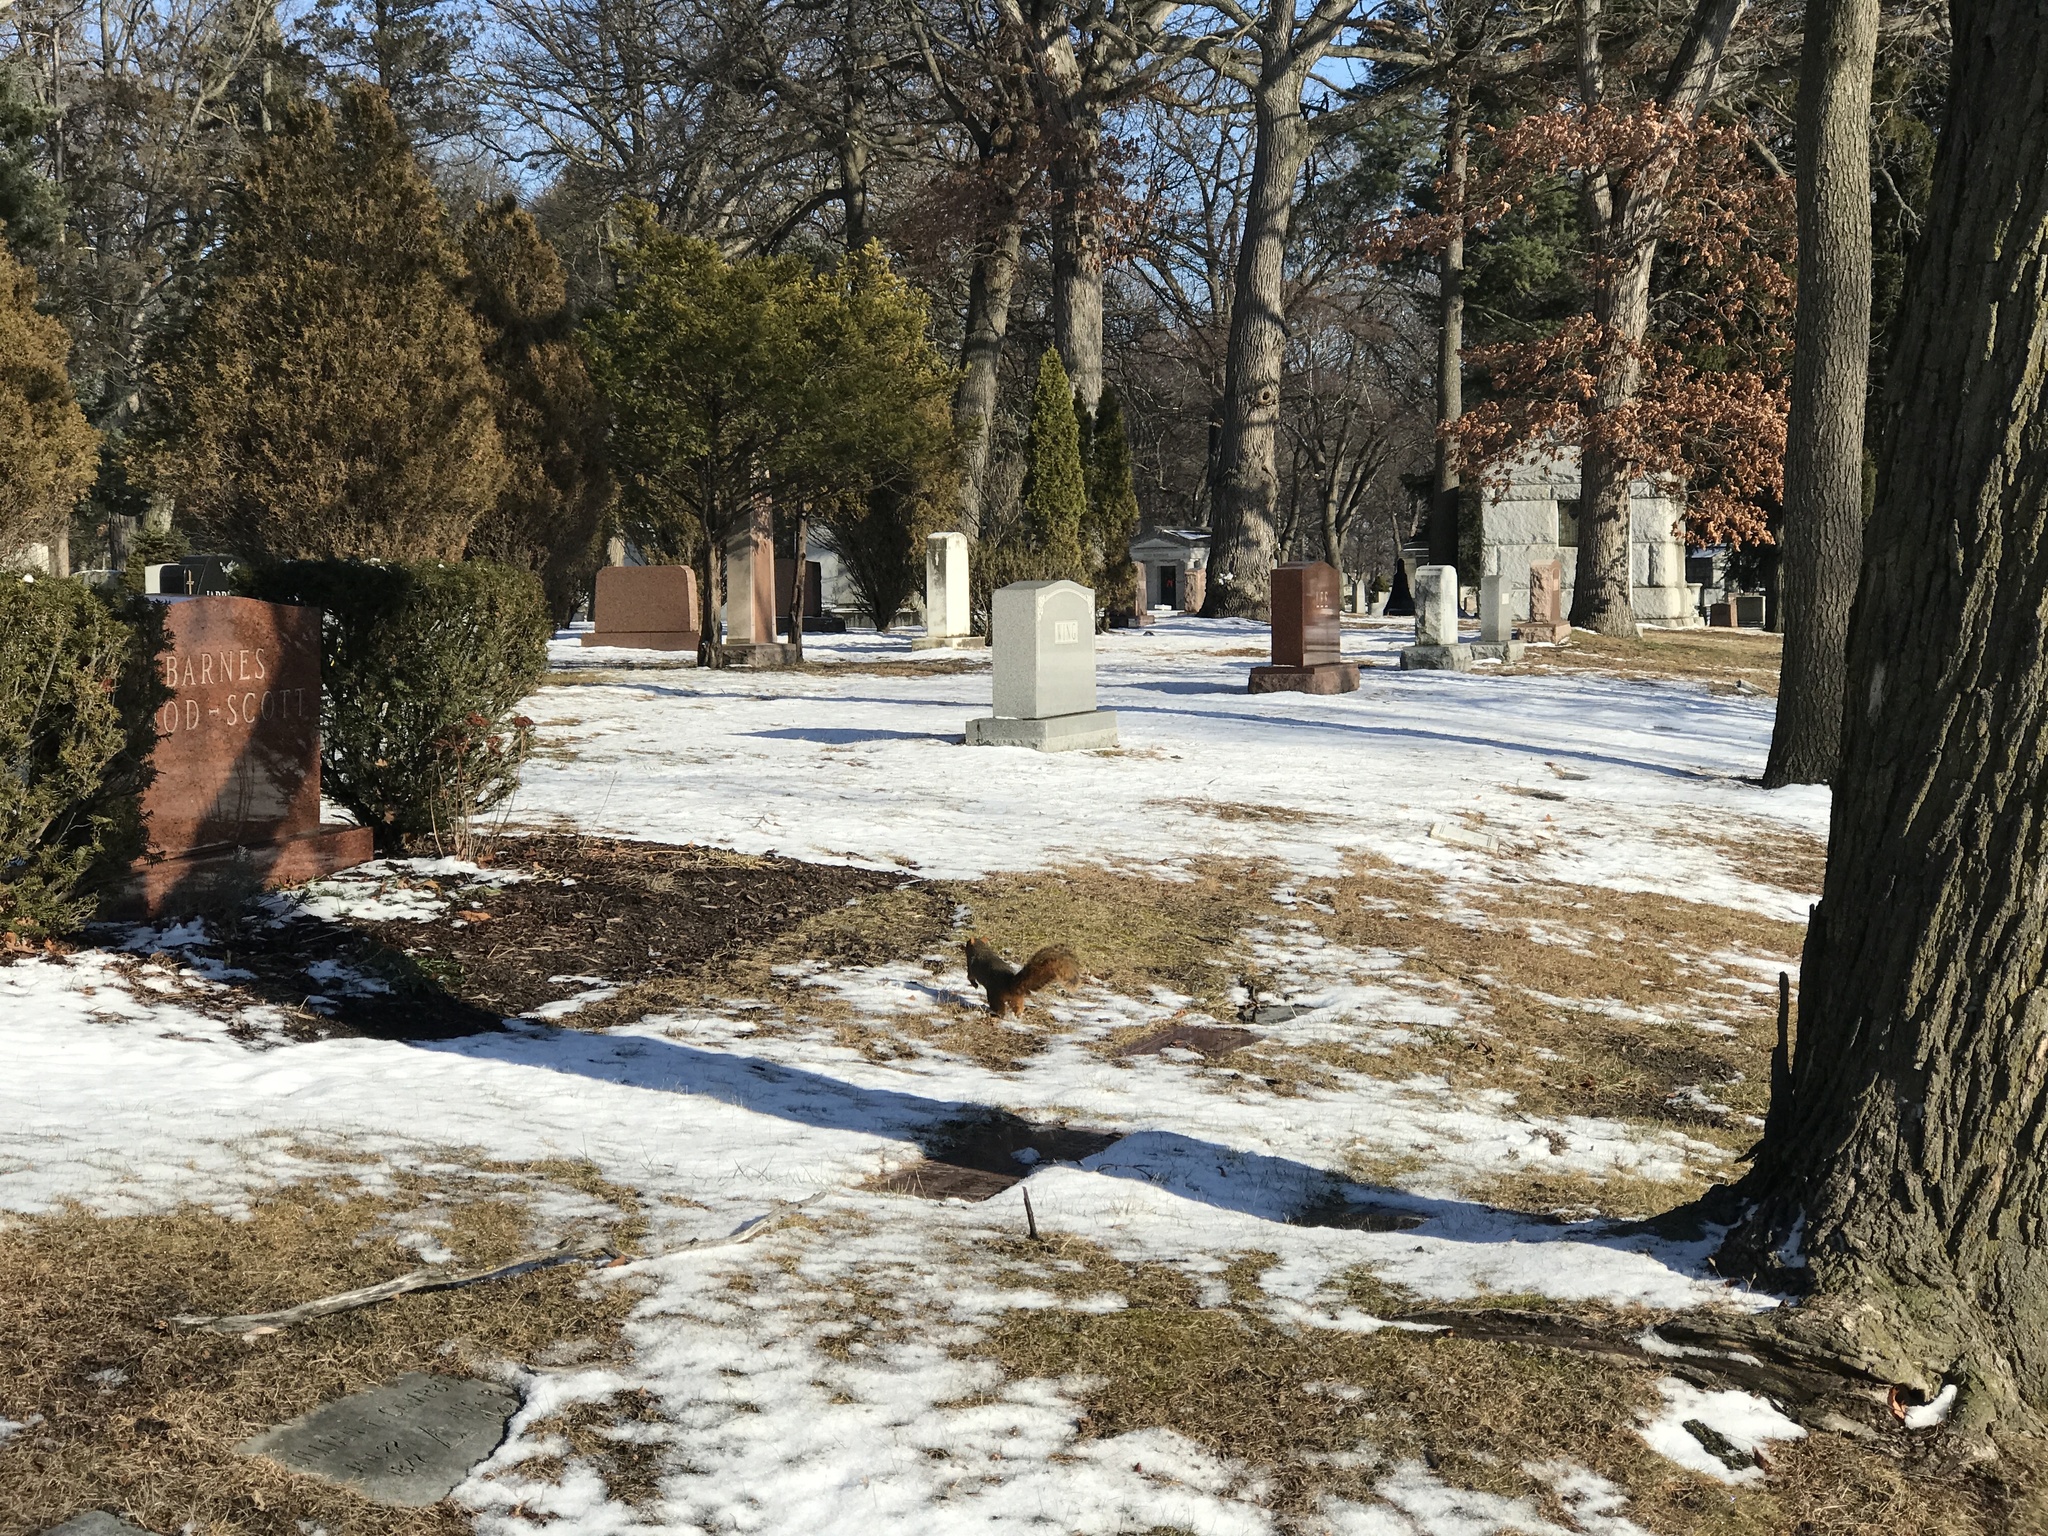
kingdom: Animalia
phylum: Chordata
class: Mammalia
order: Rodentia
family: Sciuridae
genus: Sciurus
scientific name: Sciurus niger
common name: Fox squirrel
